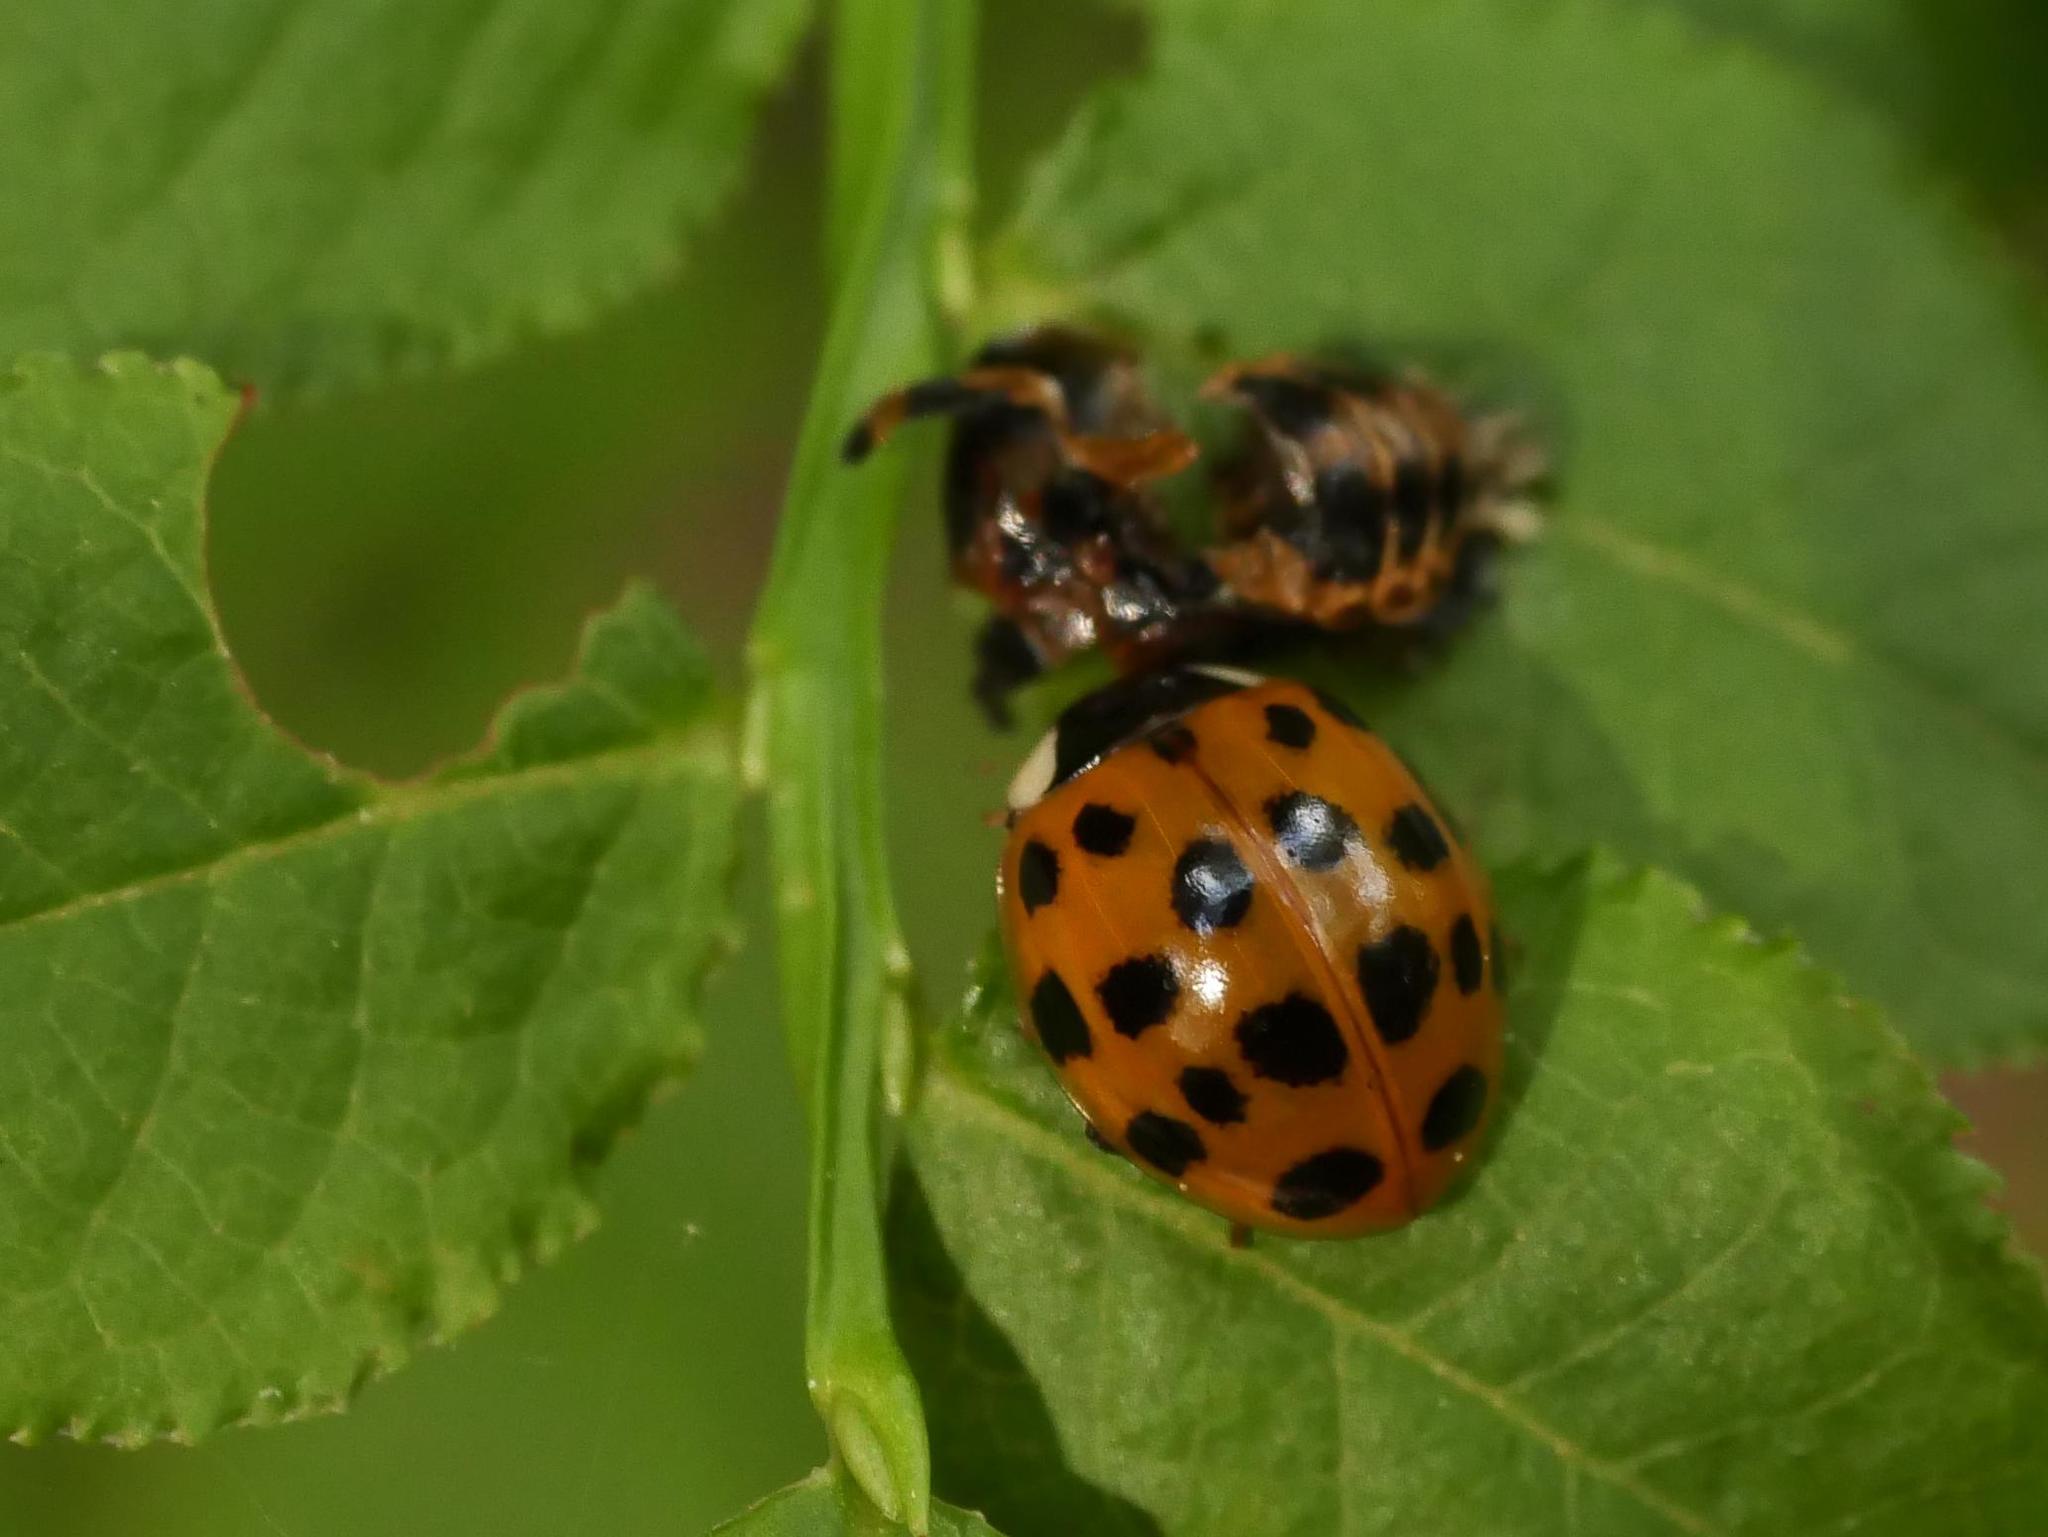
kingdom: Animalia
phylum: Arthropoda
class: Insecta
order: Coleoptera
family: Coccinellidae
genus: Harmonia
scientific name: Harmonia axyridis
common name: Harlequin ladybird
